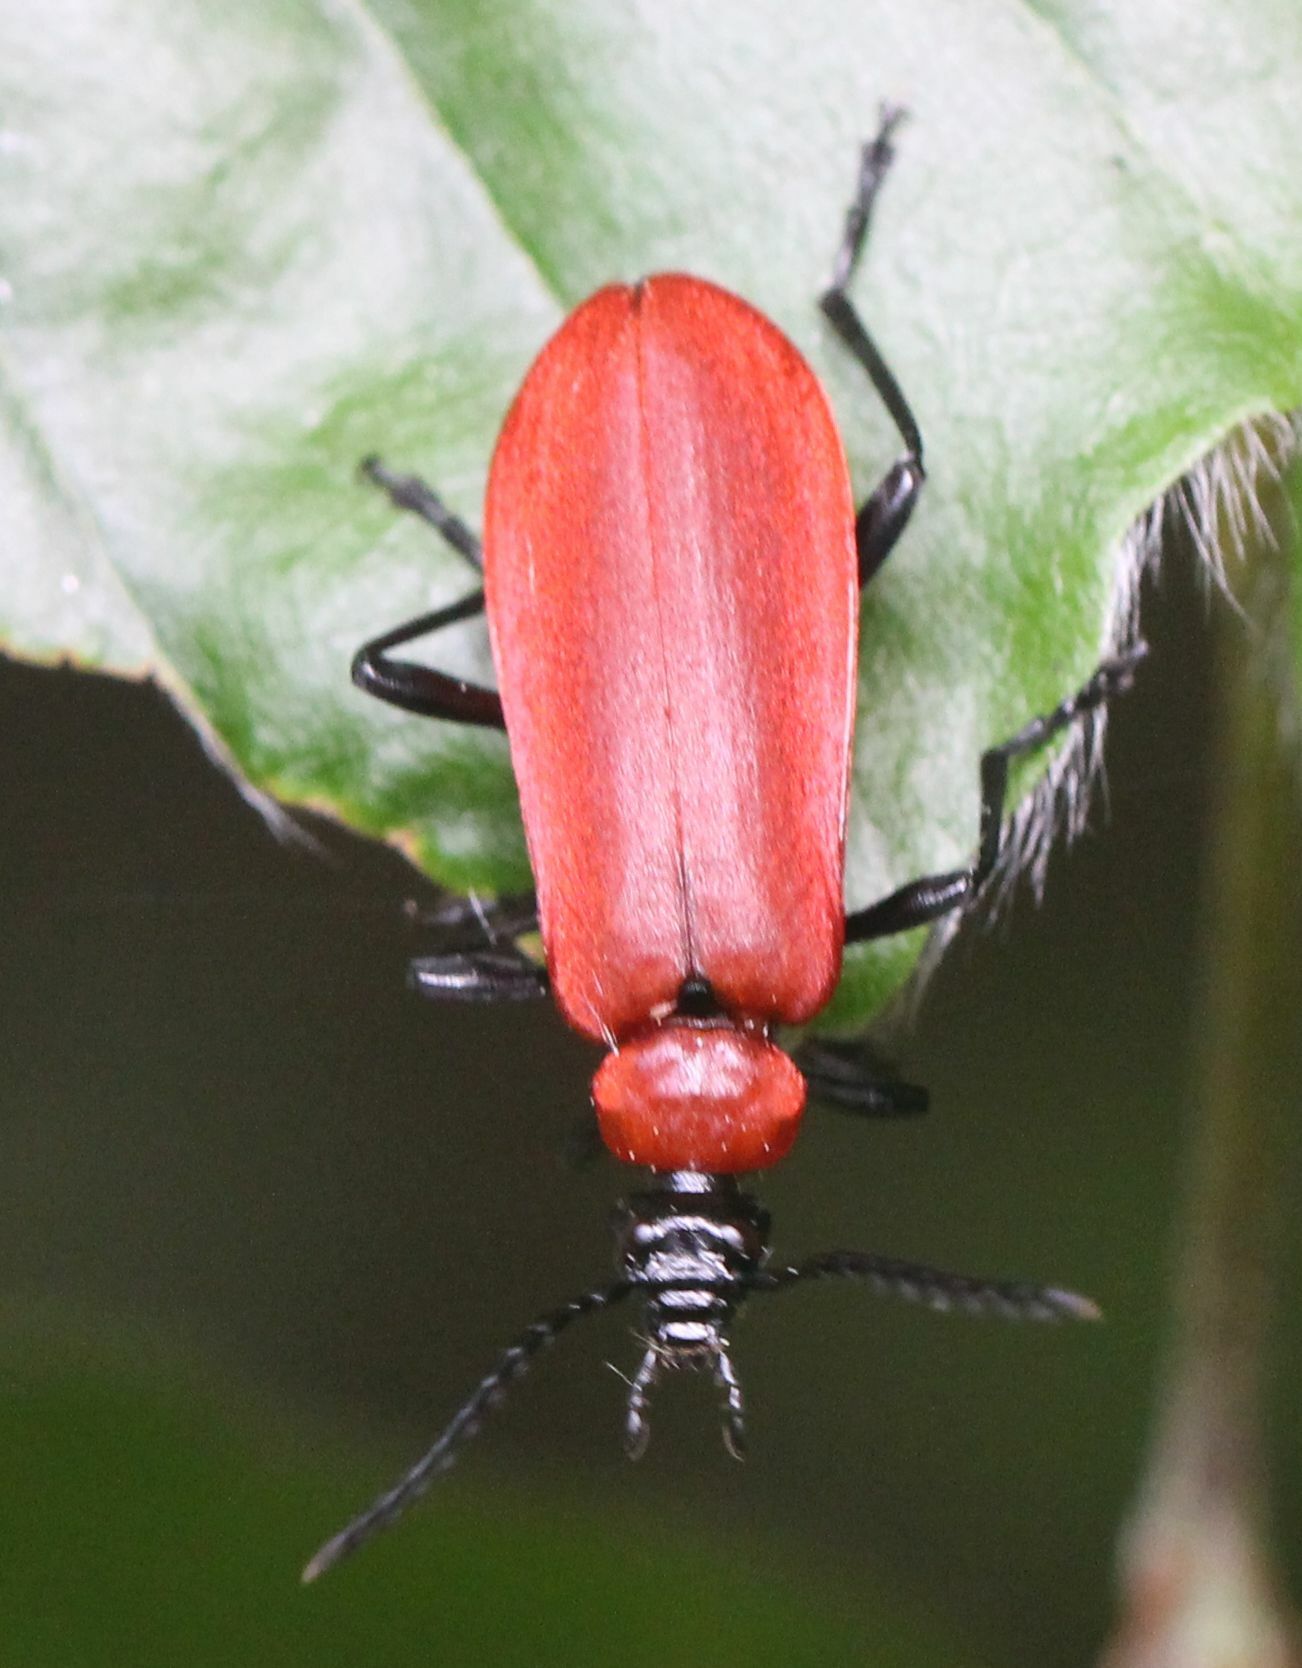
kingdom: Animalia
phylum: Arthropoda
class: Insecta
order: Coleoptera
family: Pyrochroidae
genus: Pyrochroa
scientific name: Pyrochroa coccinea
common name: Black-headed cardinal beetle
